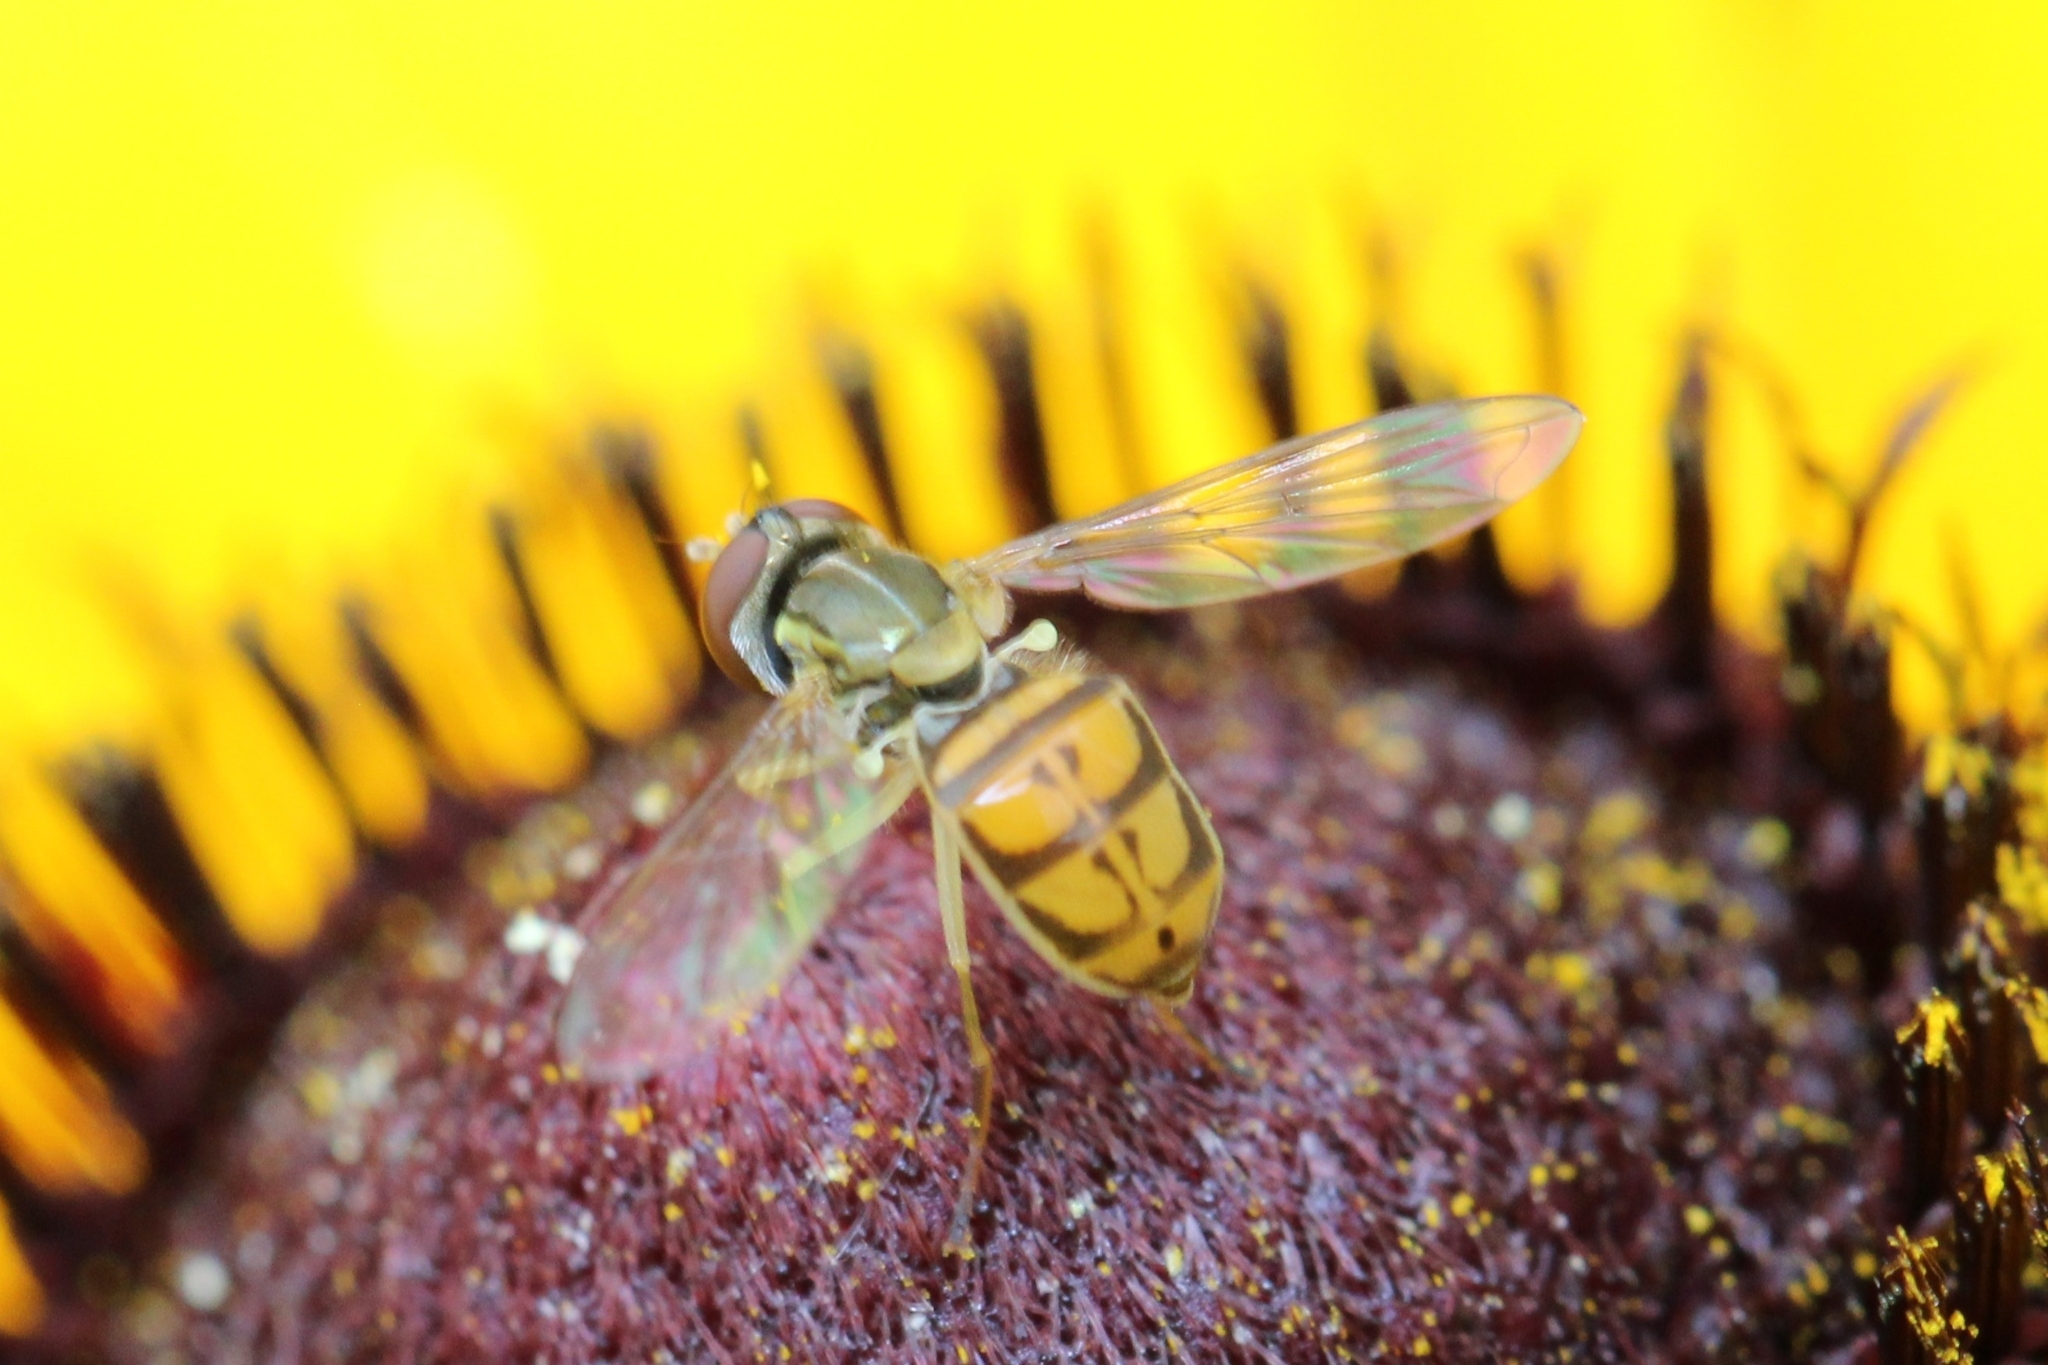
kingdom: Animalia
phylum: Arthropoda
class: Insecta
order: Diptera
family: Syrphidae
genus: Toxomerus
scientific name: Toxomerus marginatus
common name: Syrphid fly
